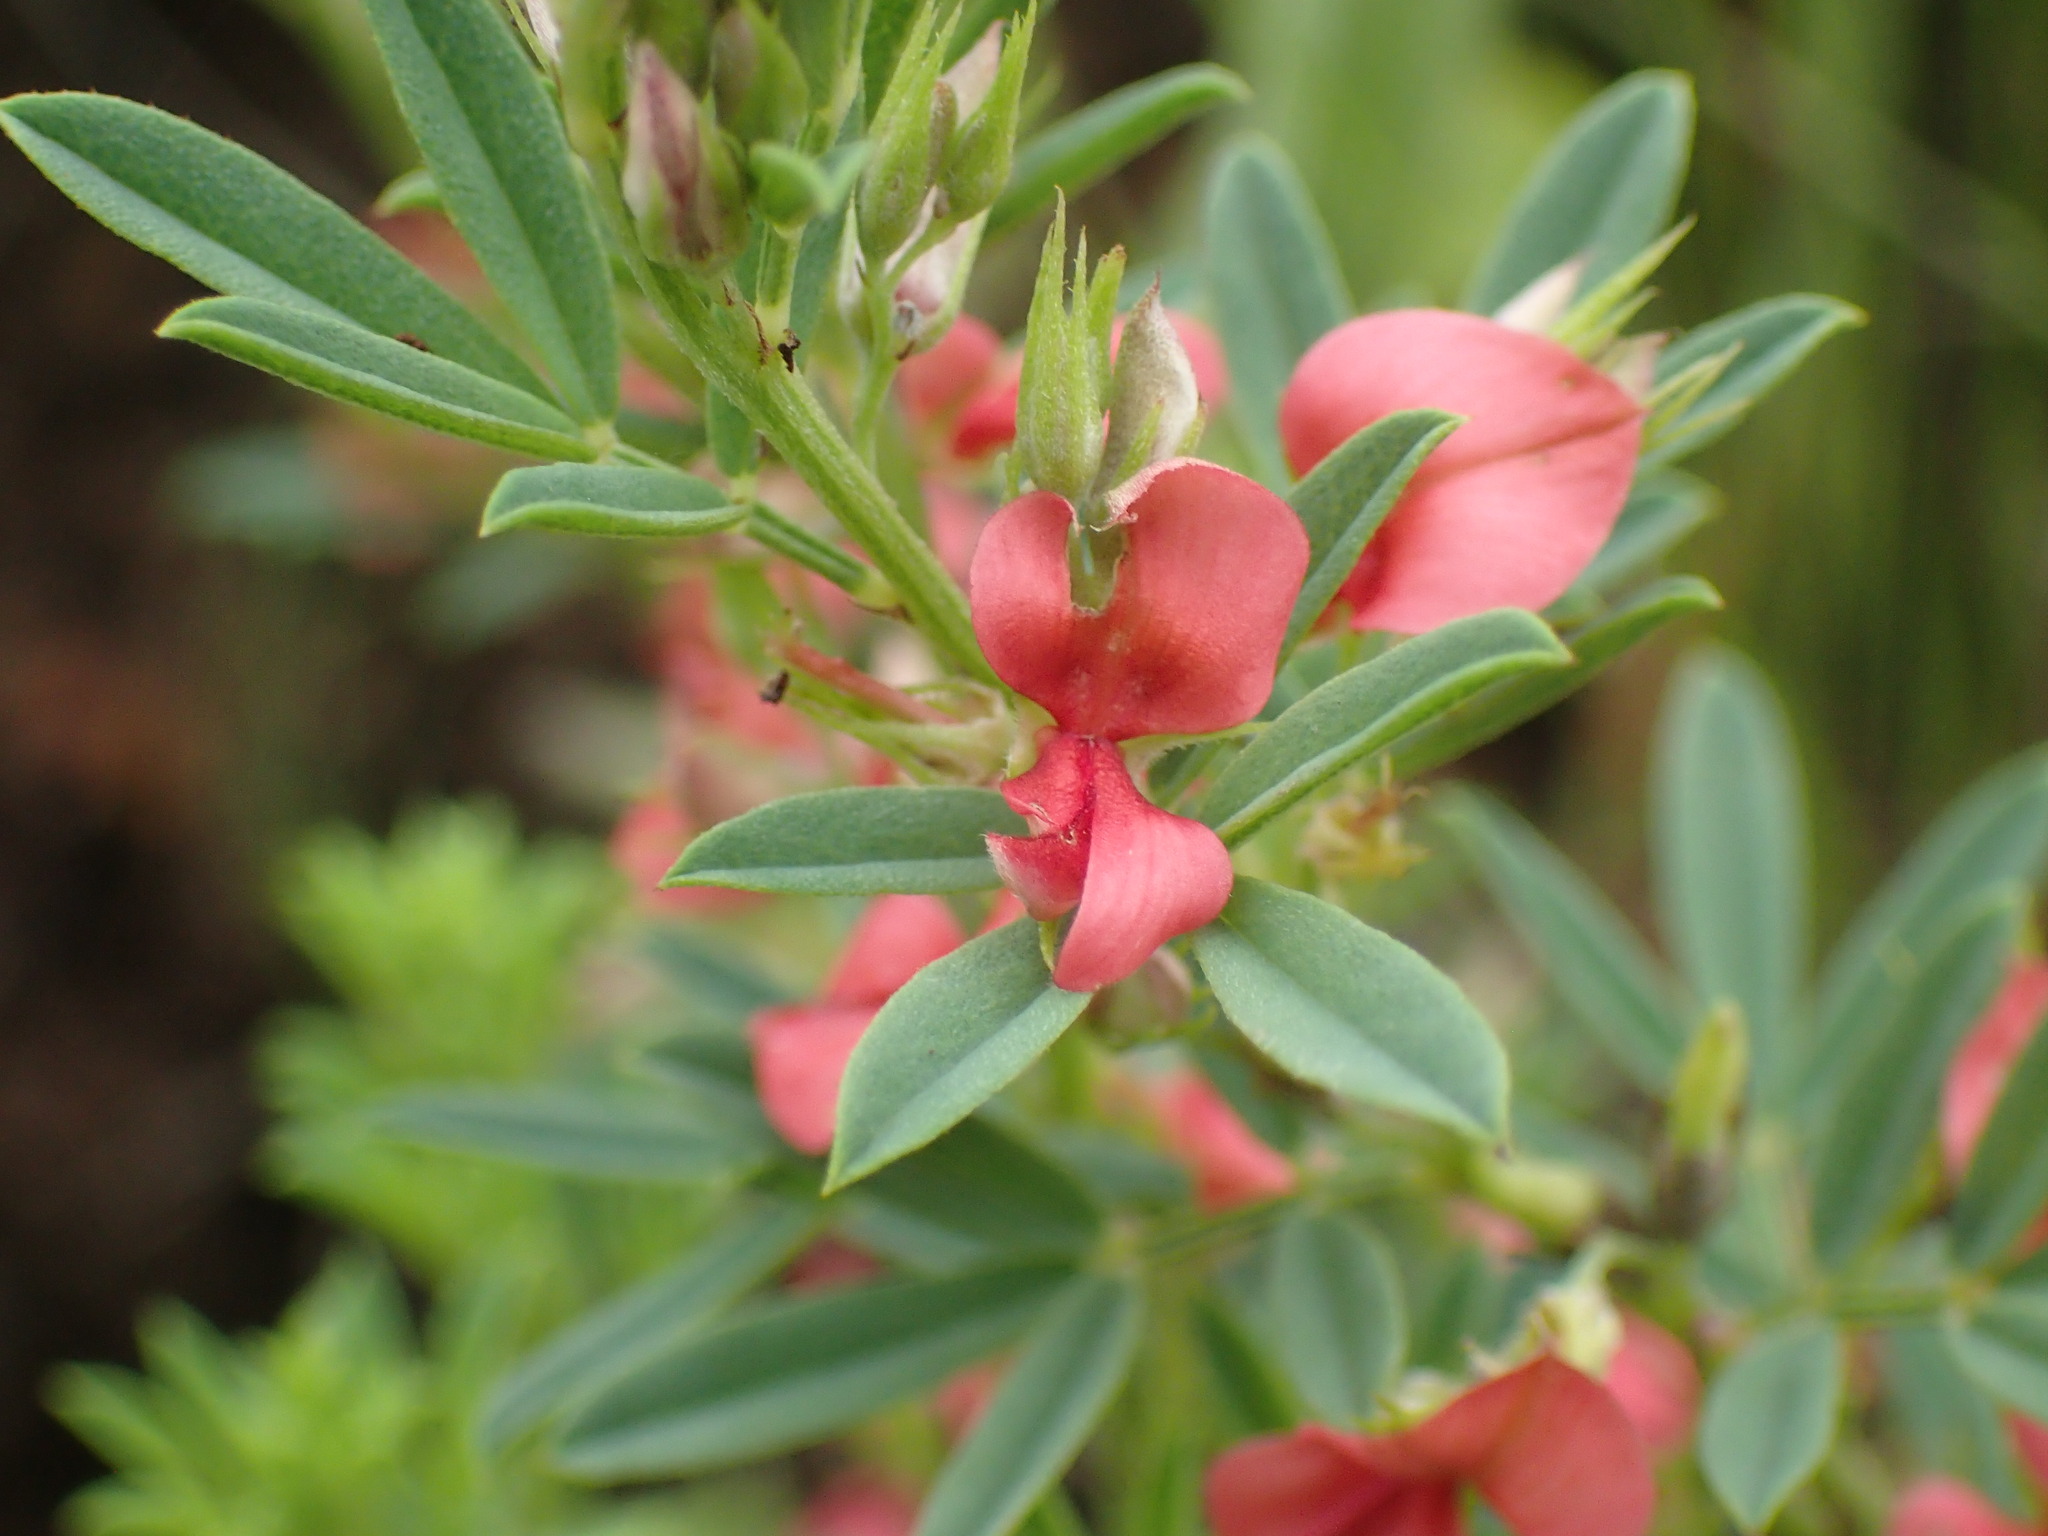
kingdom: Plantae
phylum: Tracheophyta
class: Magnoliopsida
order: Fabales
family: Fabaceae
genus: Indigofera
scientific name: Indigofera hilaris
